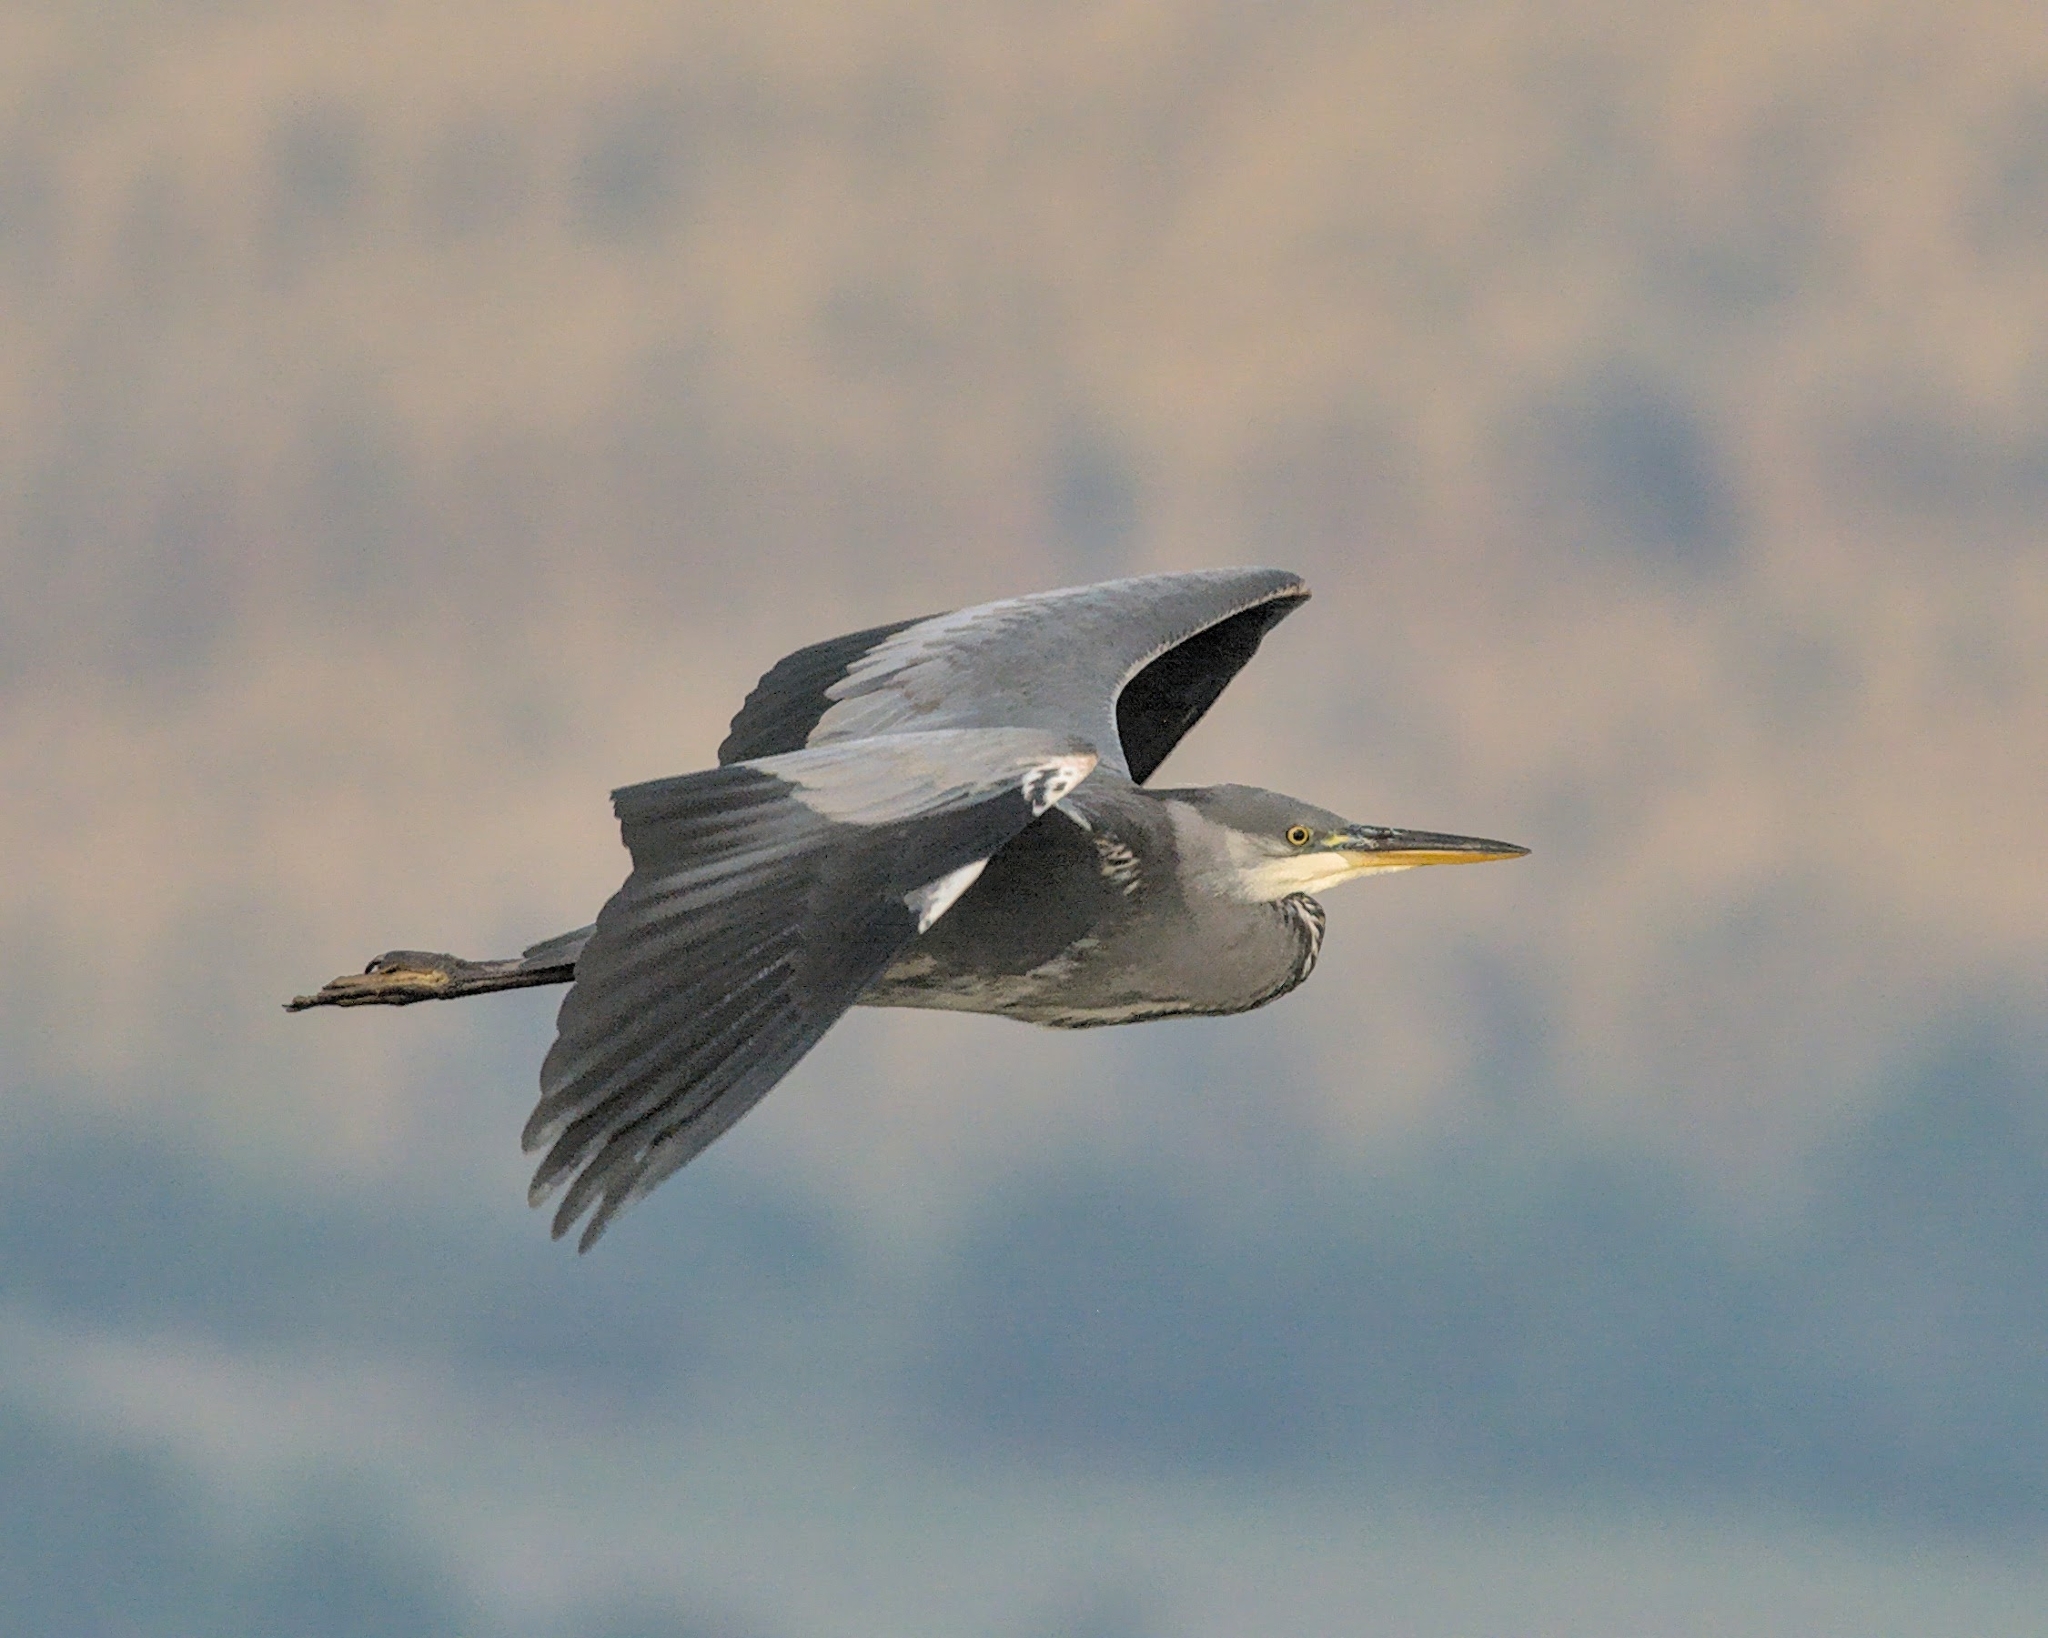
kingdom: Animalia
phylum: Chordata
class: Aves
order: Pelecaniformes
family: Ardeidae
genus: Ardea
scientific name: Ardea cinerea
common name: Grey heron
